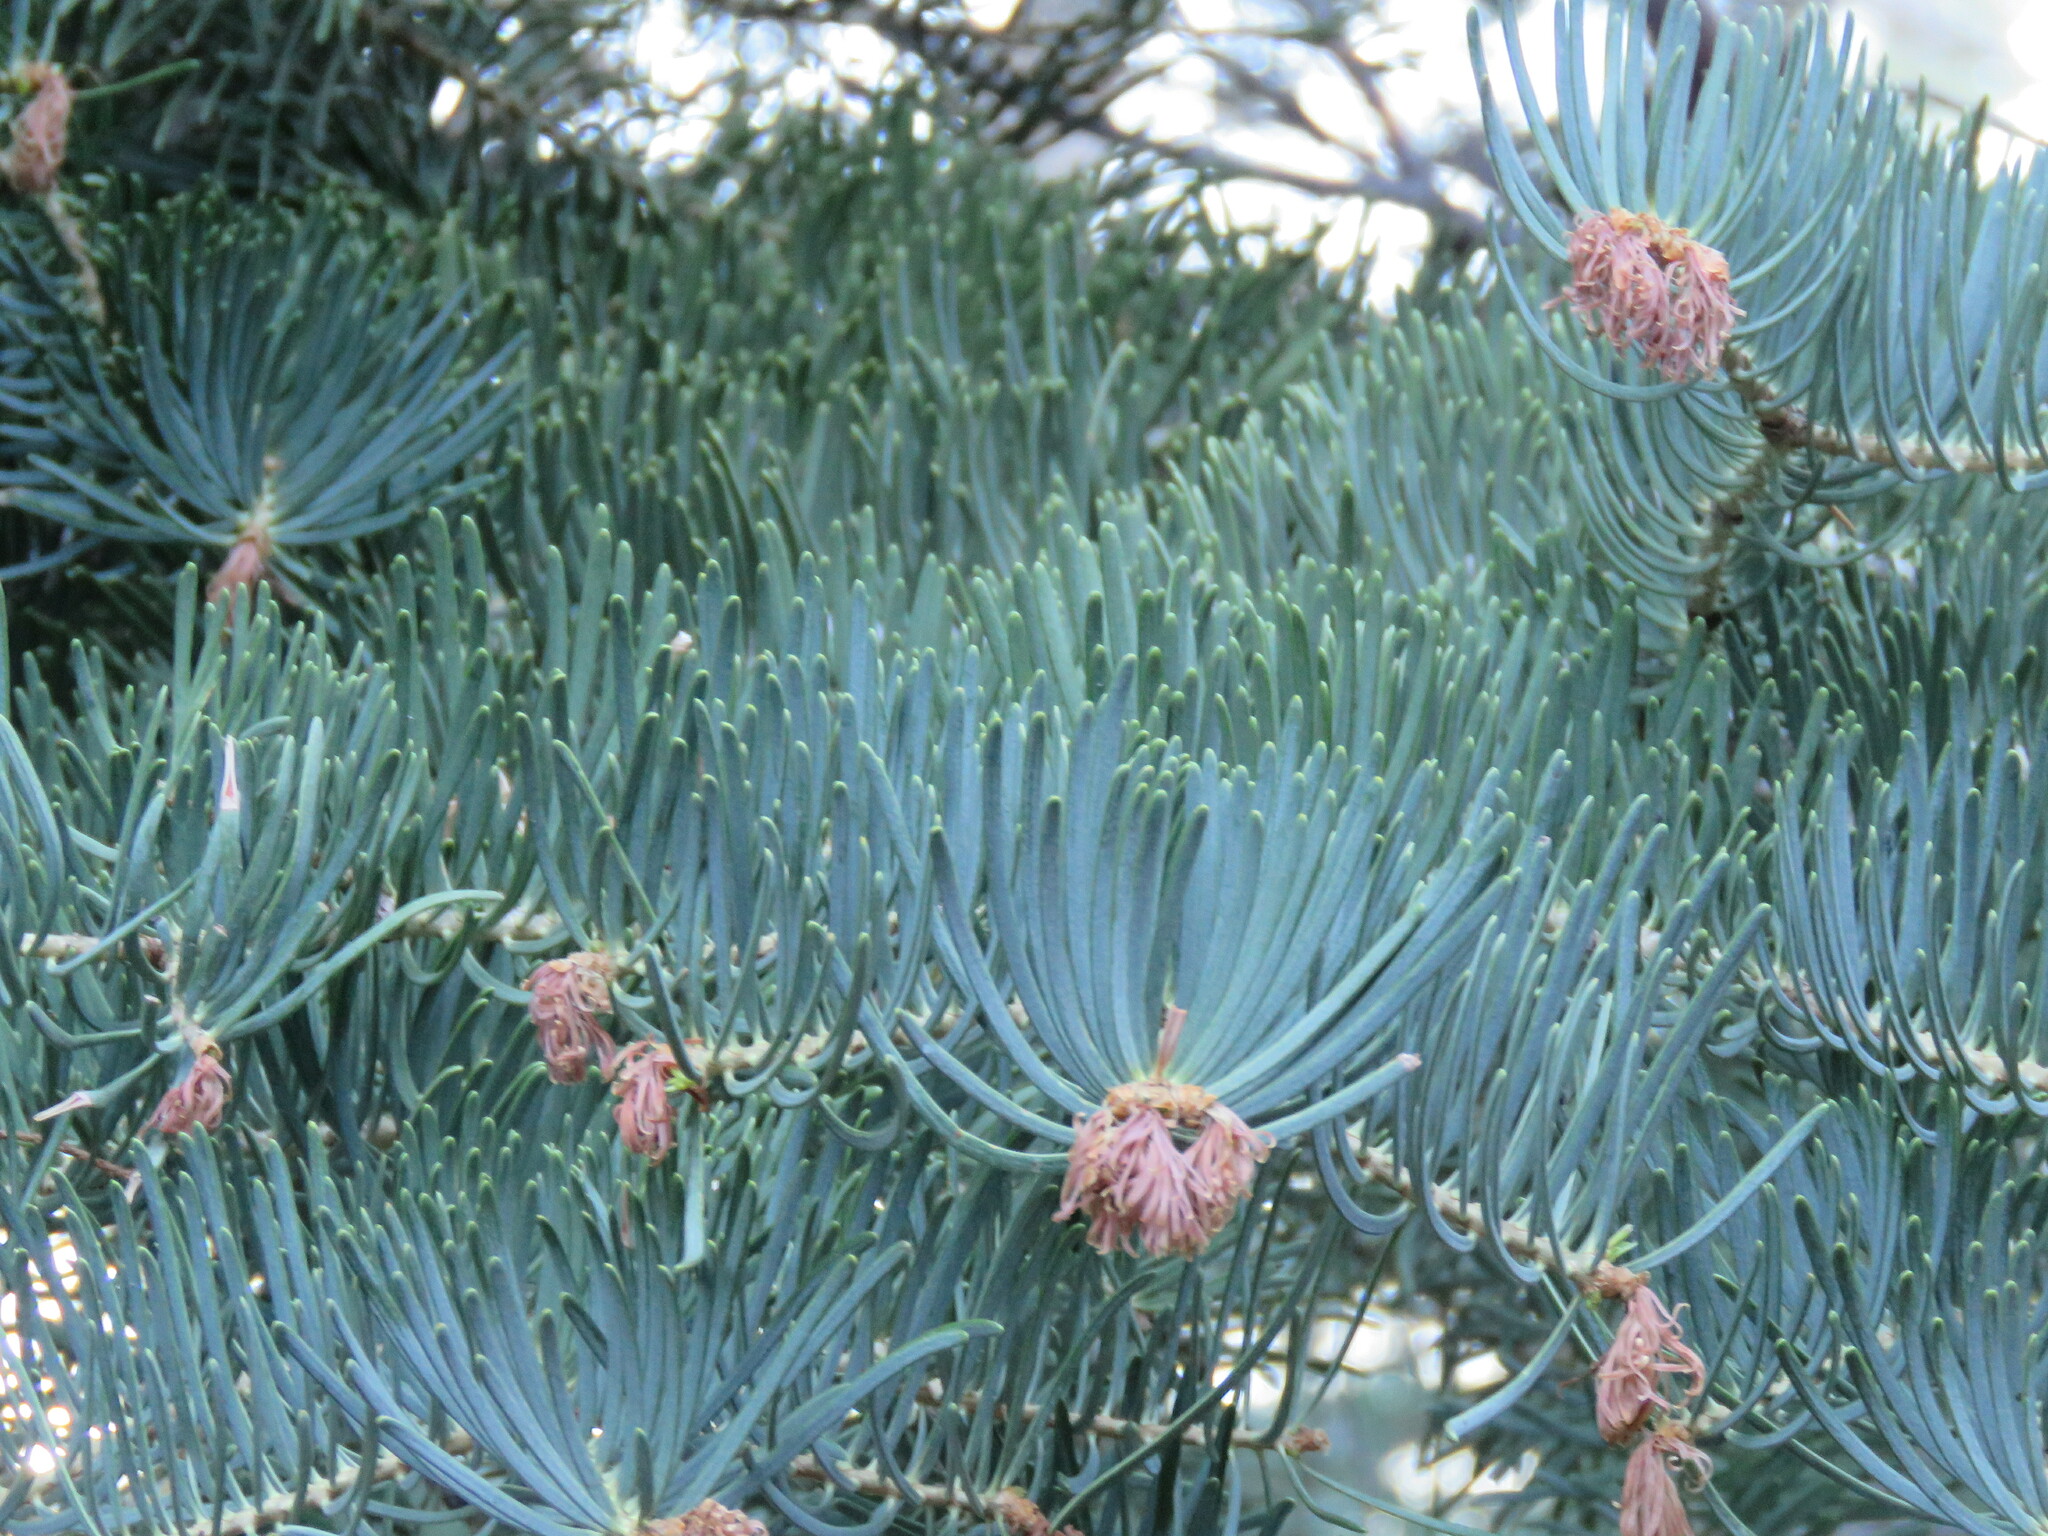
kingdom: Plantae
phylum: Tracheophyta
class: Pinopsida
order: Pinales
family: Pinaceae
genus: Picea
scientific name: Picea pungens
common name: Colorado spruce
